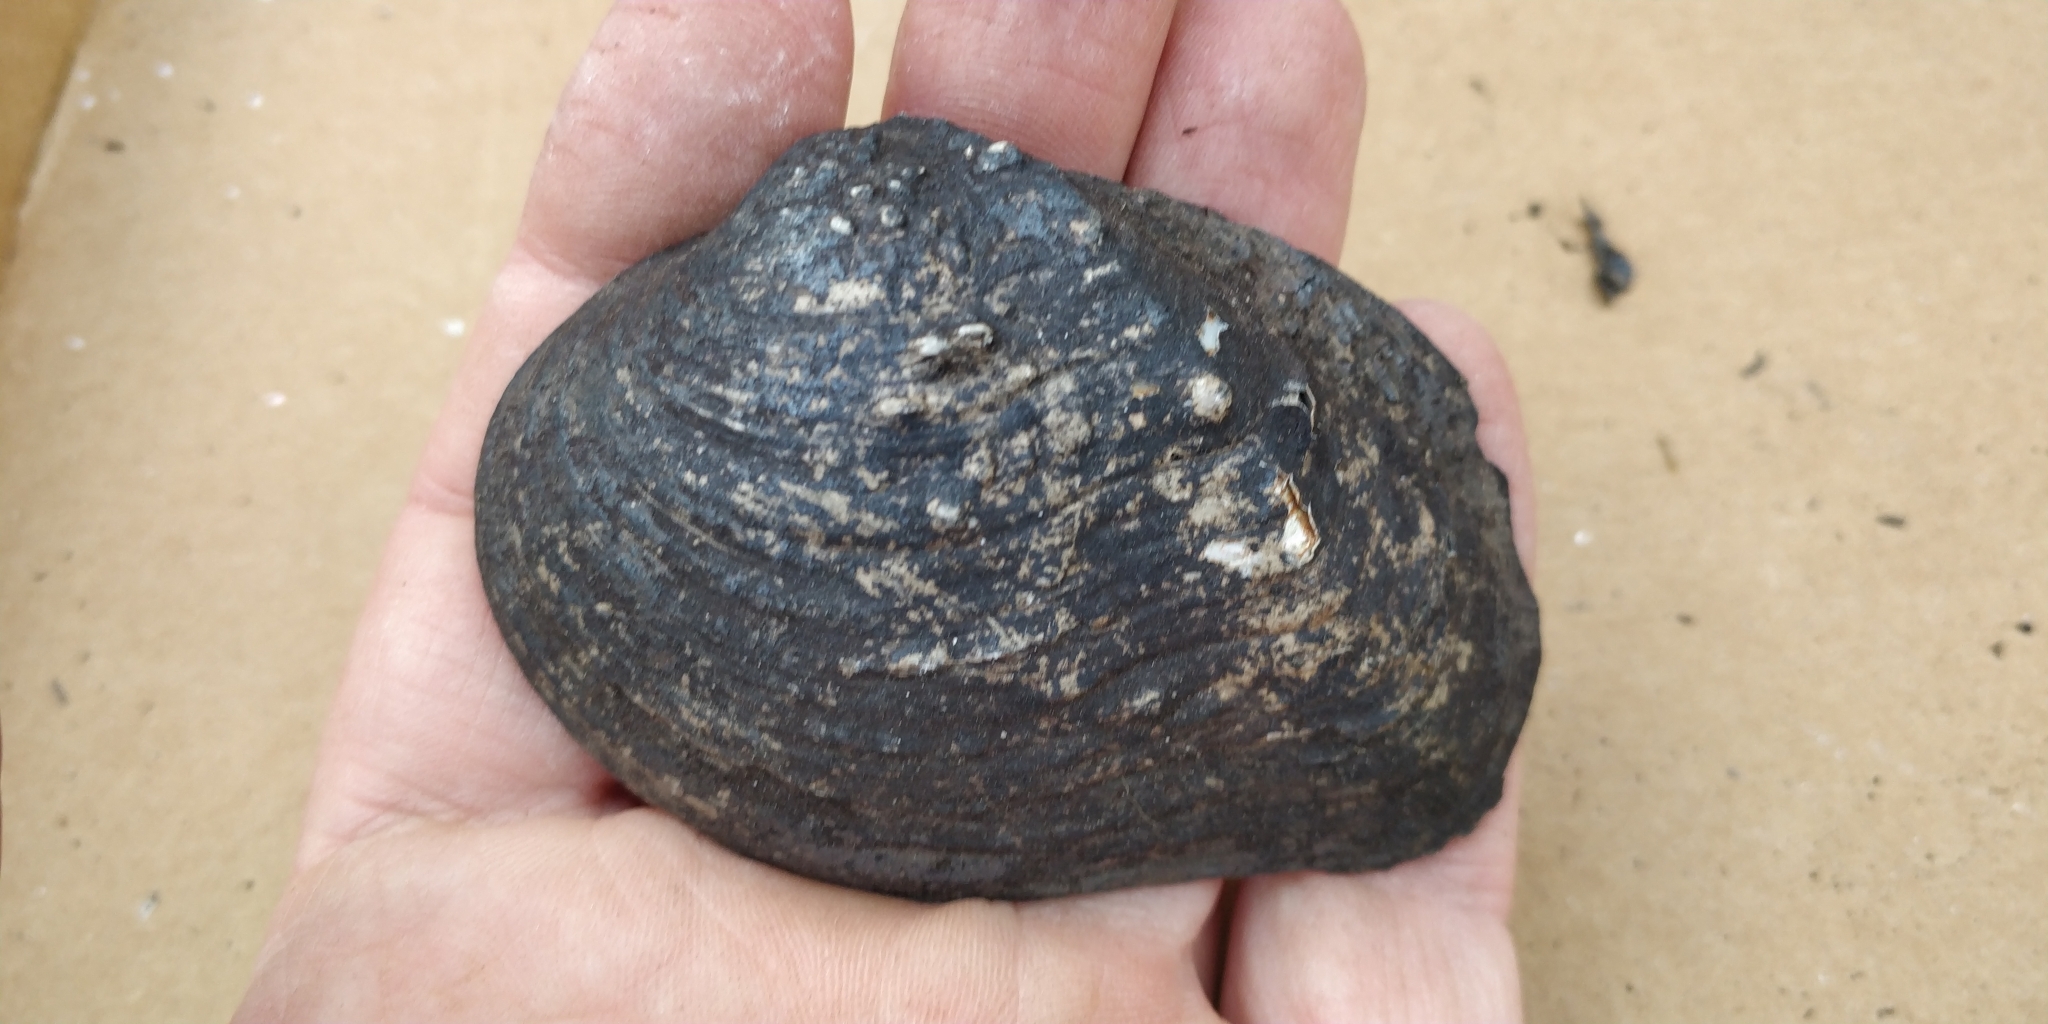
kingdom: Animalia
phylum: Mollusca
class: Bivalvia
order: Unionida
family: Unionidae
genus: Quadrula
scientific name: Quadrula quadrula
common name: Mapleleaf
